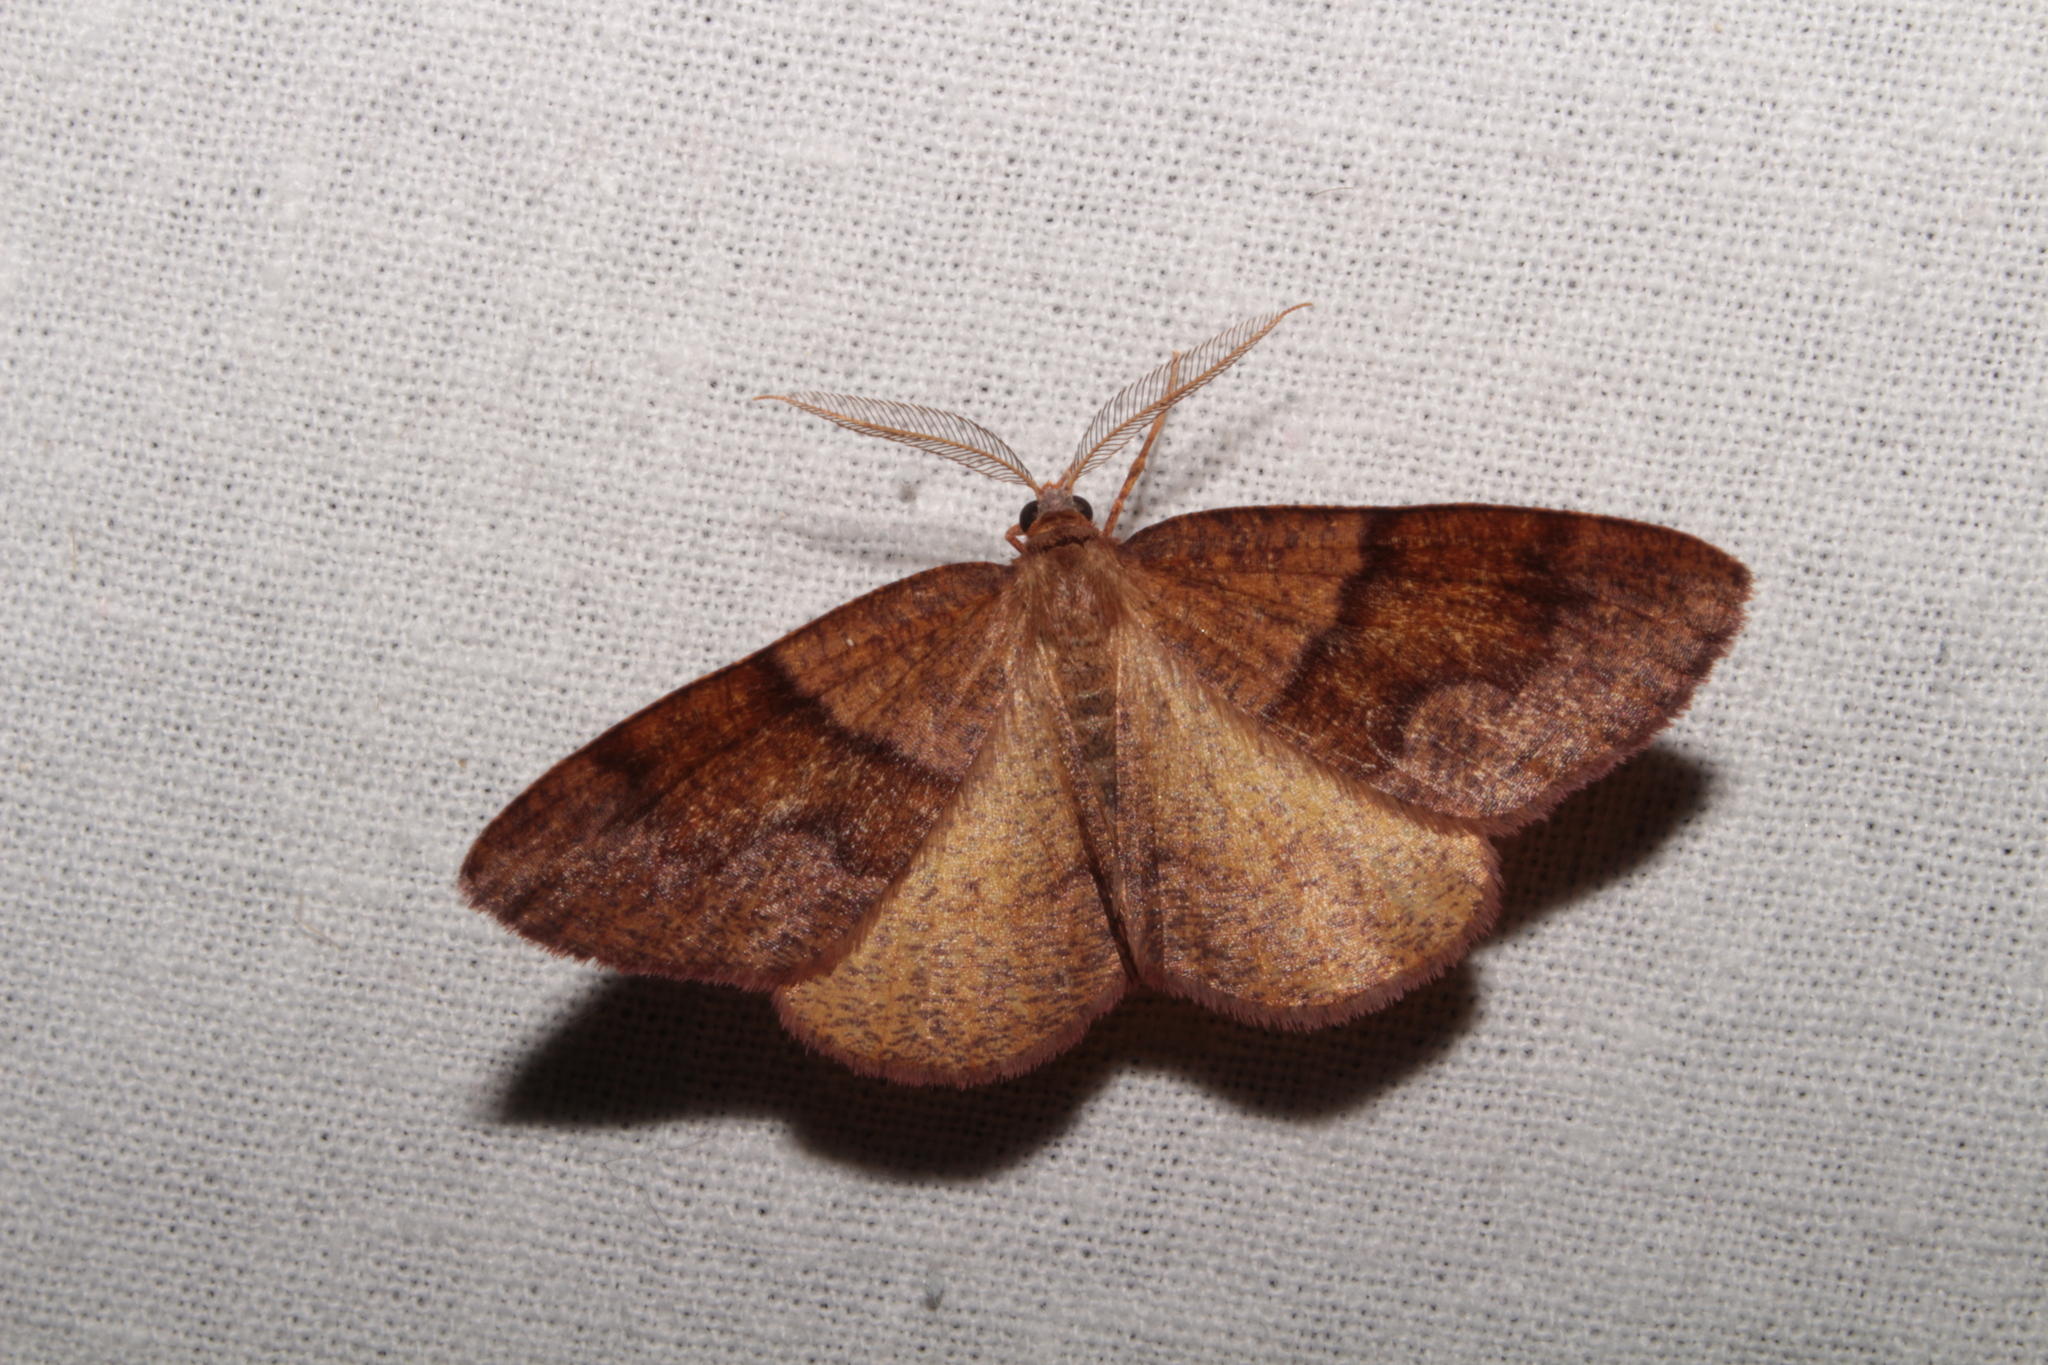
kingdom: Animalia
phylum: Arthropoda
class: Insecta
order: Lepidoptera
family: Geometridae
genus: Plagodis
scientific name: Plagodis pulveraria
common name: Barred umber
